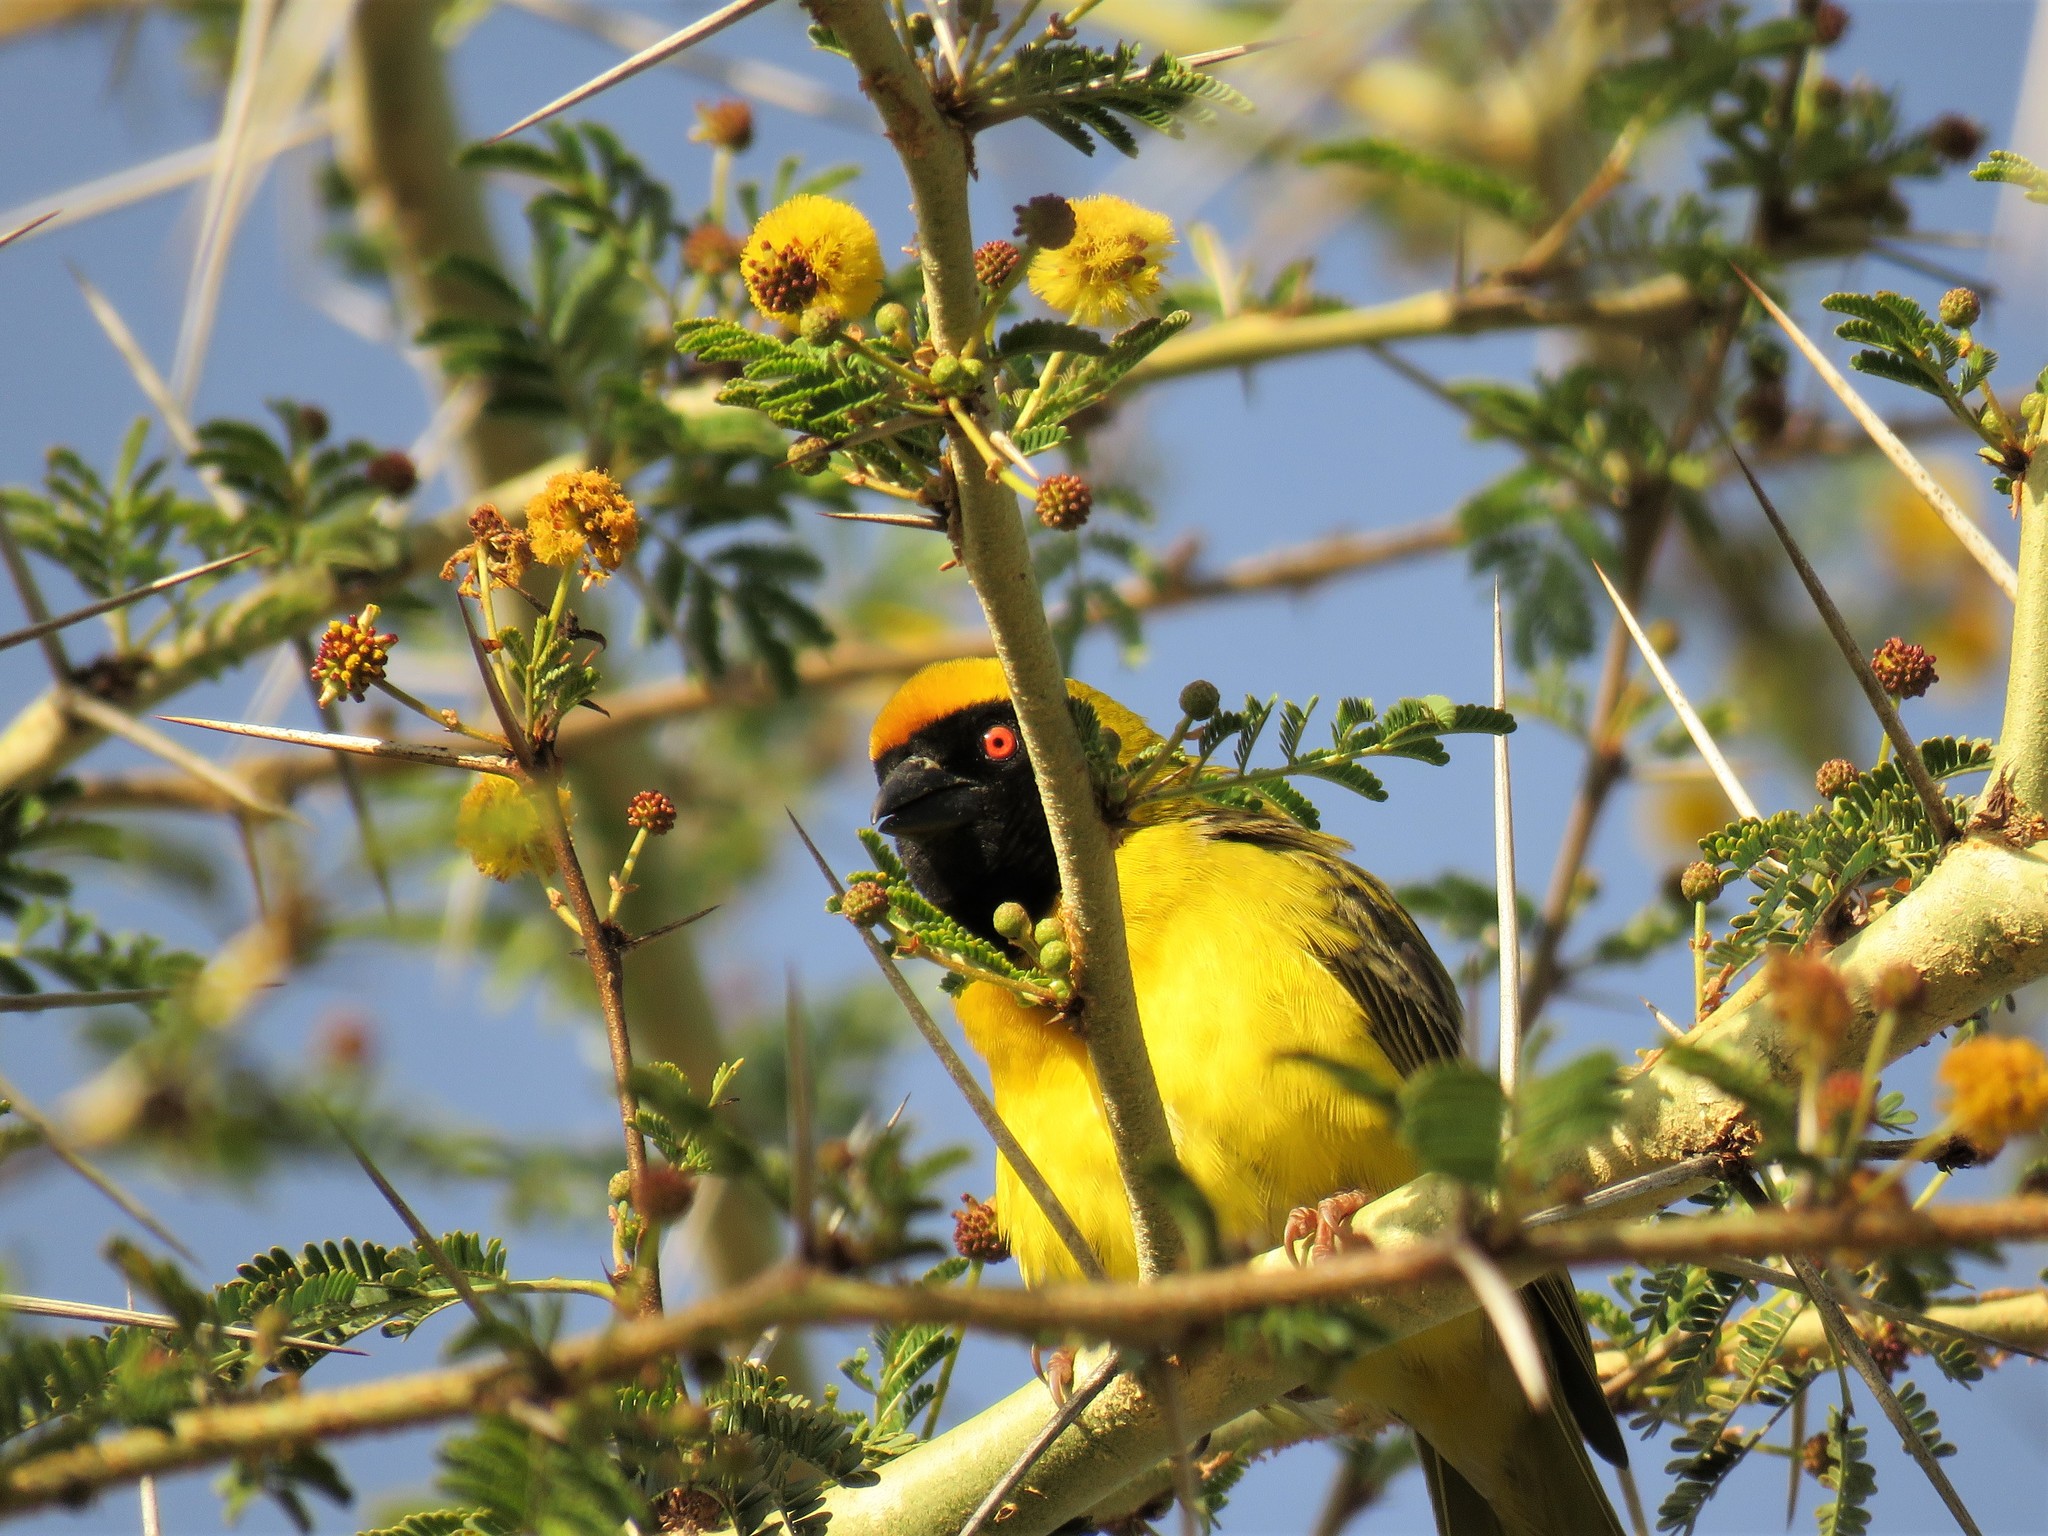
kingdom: Animalia
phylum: Chordata
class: Aves
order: Passeriformes
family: Ploceidae
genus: Ploceus
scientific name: Ploceus velatus
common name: Southern masked weaver
